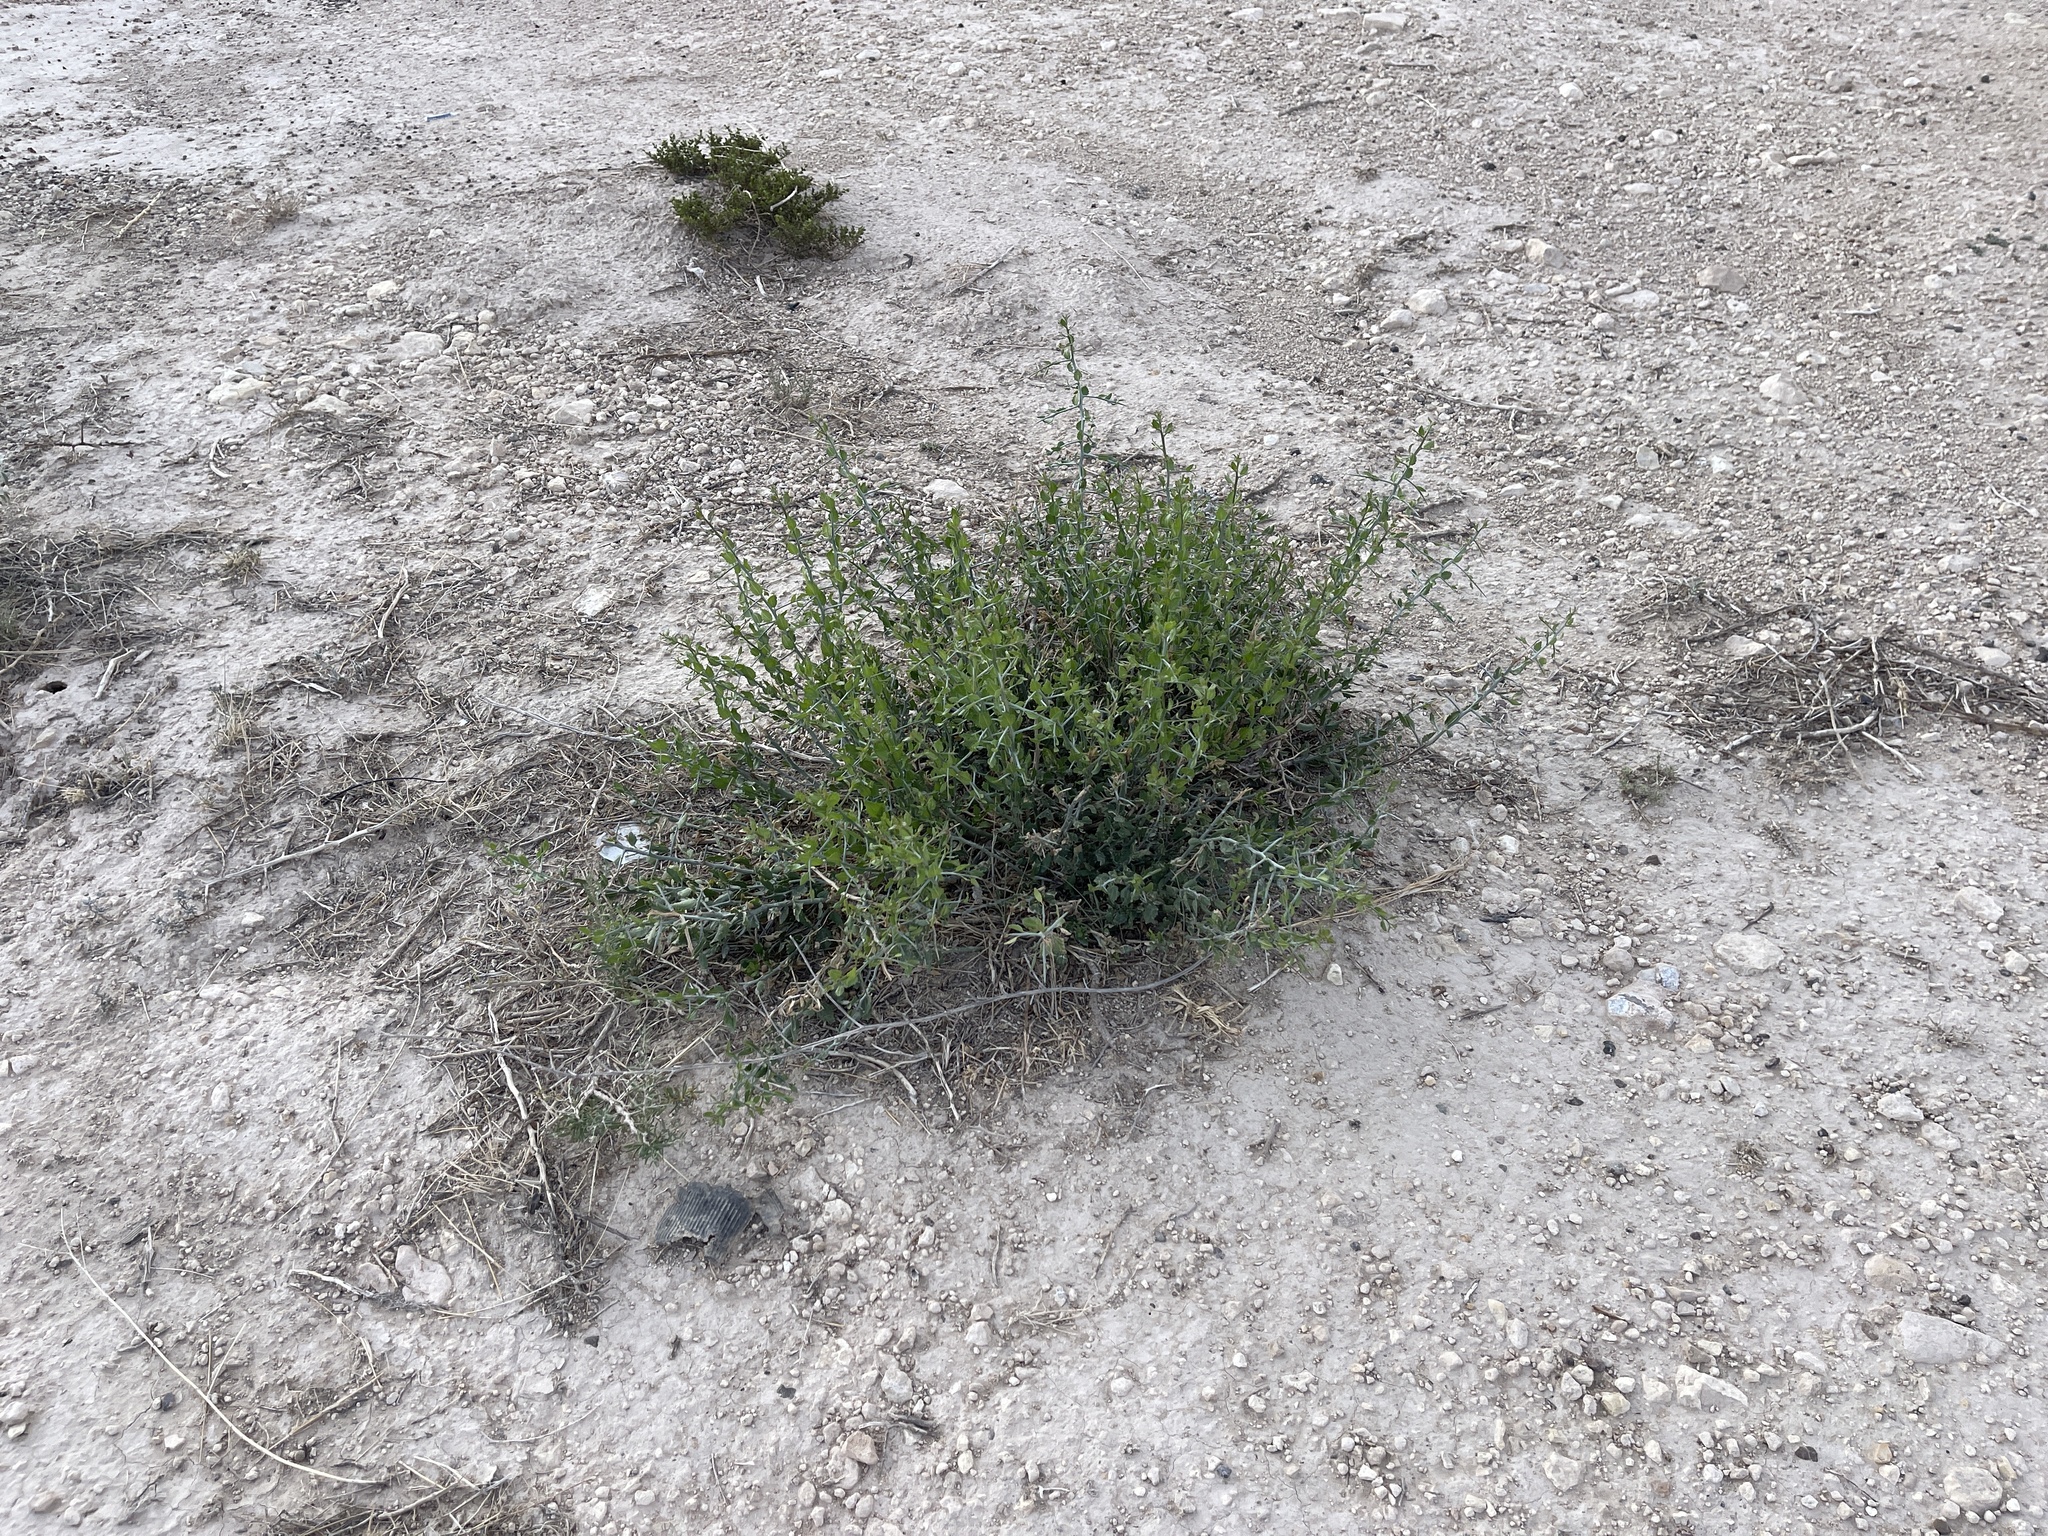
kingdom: Plantae
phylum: Tracheophyta
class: Magnoliopsida
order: Rosales
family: Rhamnaceae
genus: Sarcomphalus
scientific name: Sarcomphalus obtusifolius
